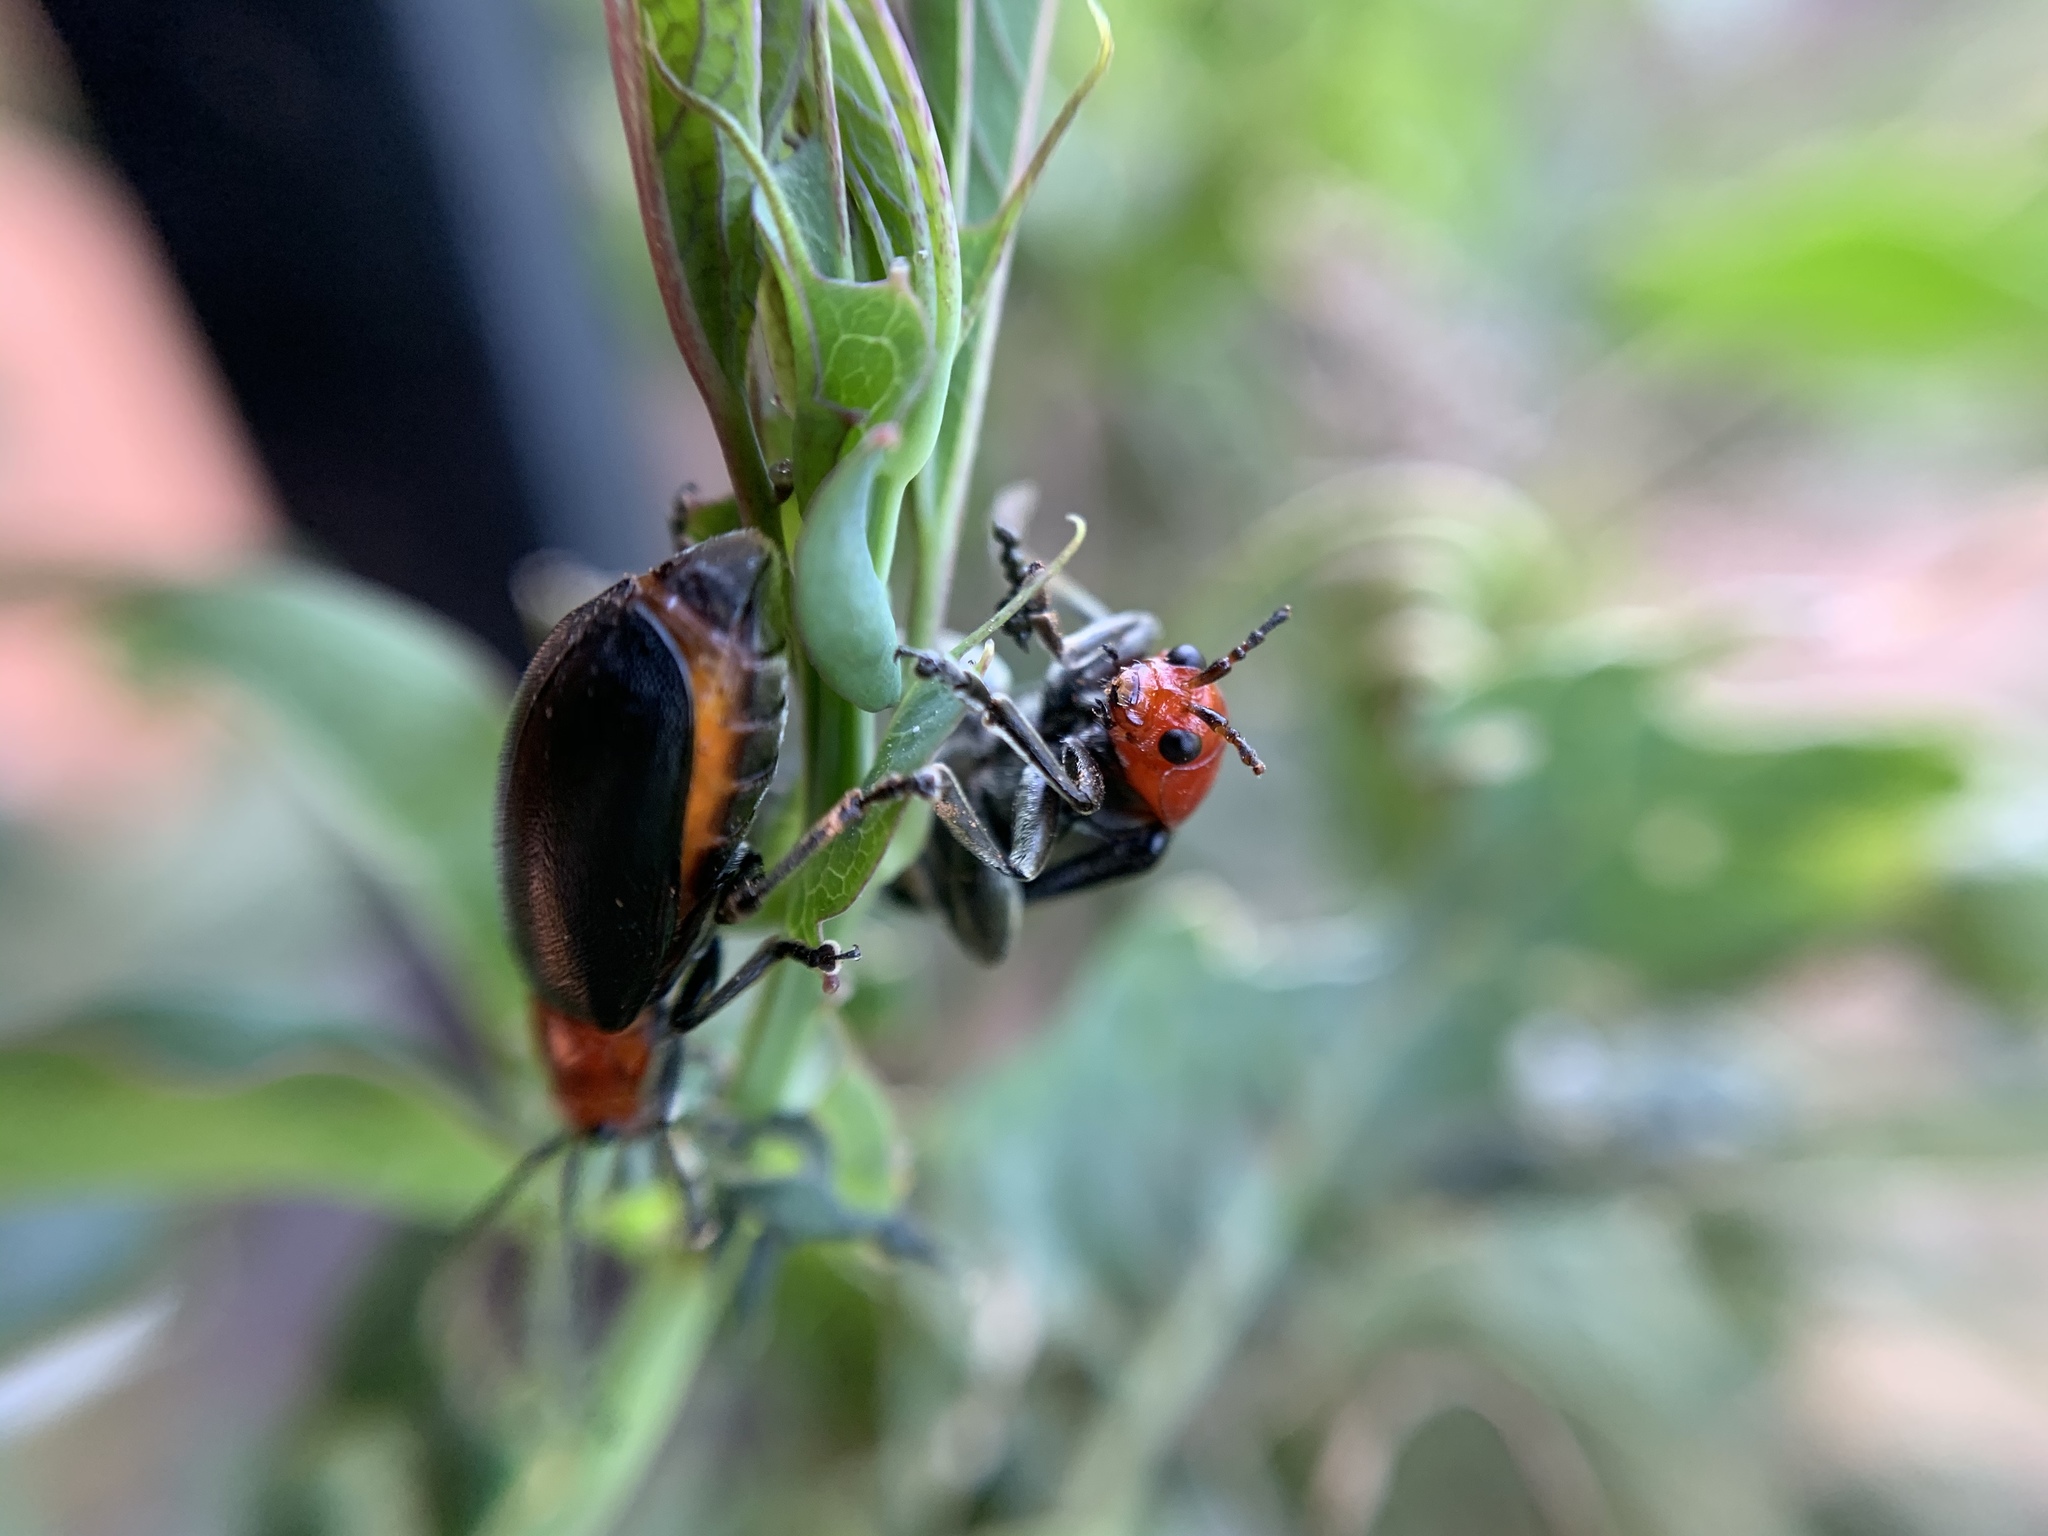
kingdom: Animalia
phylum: Arthropoda
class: Insecta
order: Coleoptera
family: Chrysomelidae
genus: Cacoscelis
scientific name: Cacoscelis
